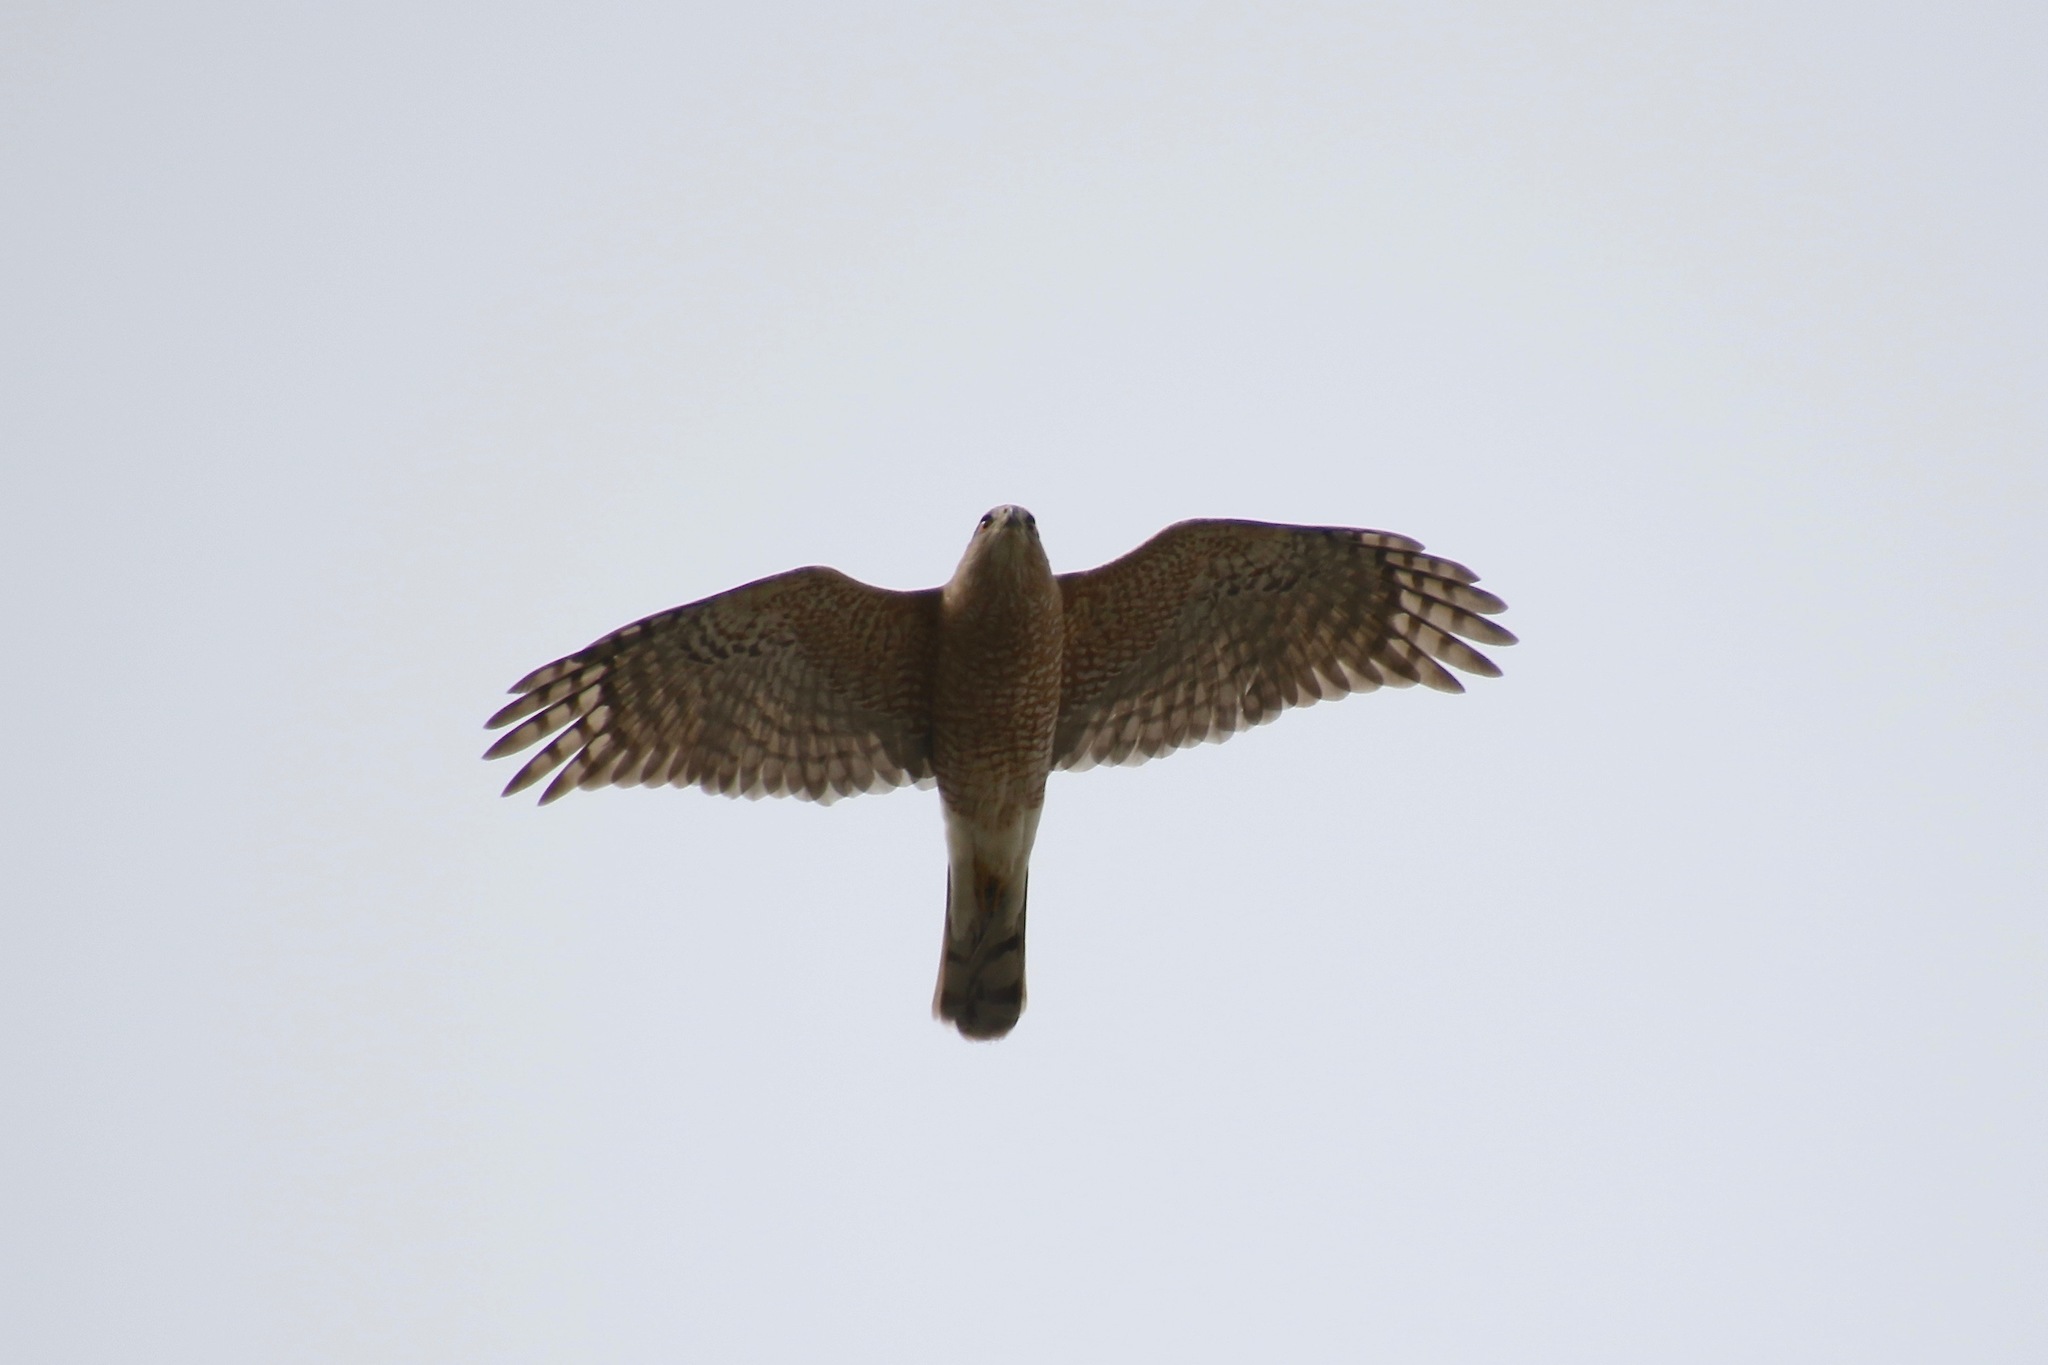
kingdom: Animalia
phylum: Chordata
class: Aves
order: Accipitriformes
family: Accipitridae
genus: Accipiter
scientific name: Accipiter cooperii
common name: Cooper's hawk
